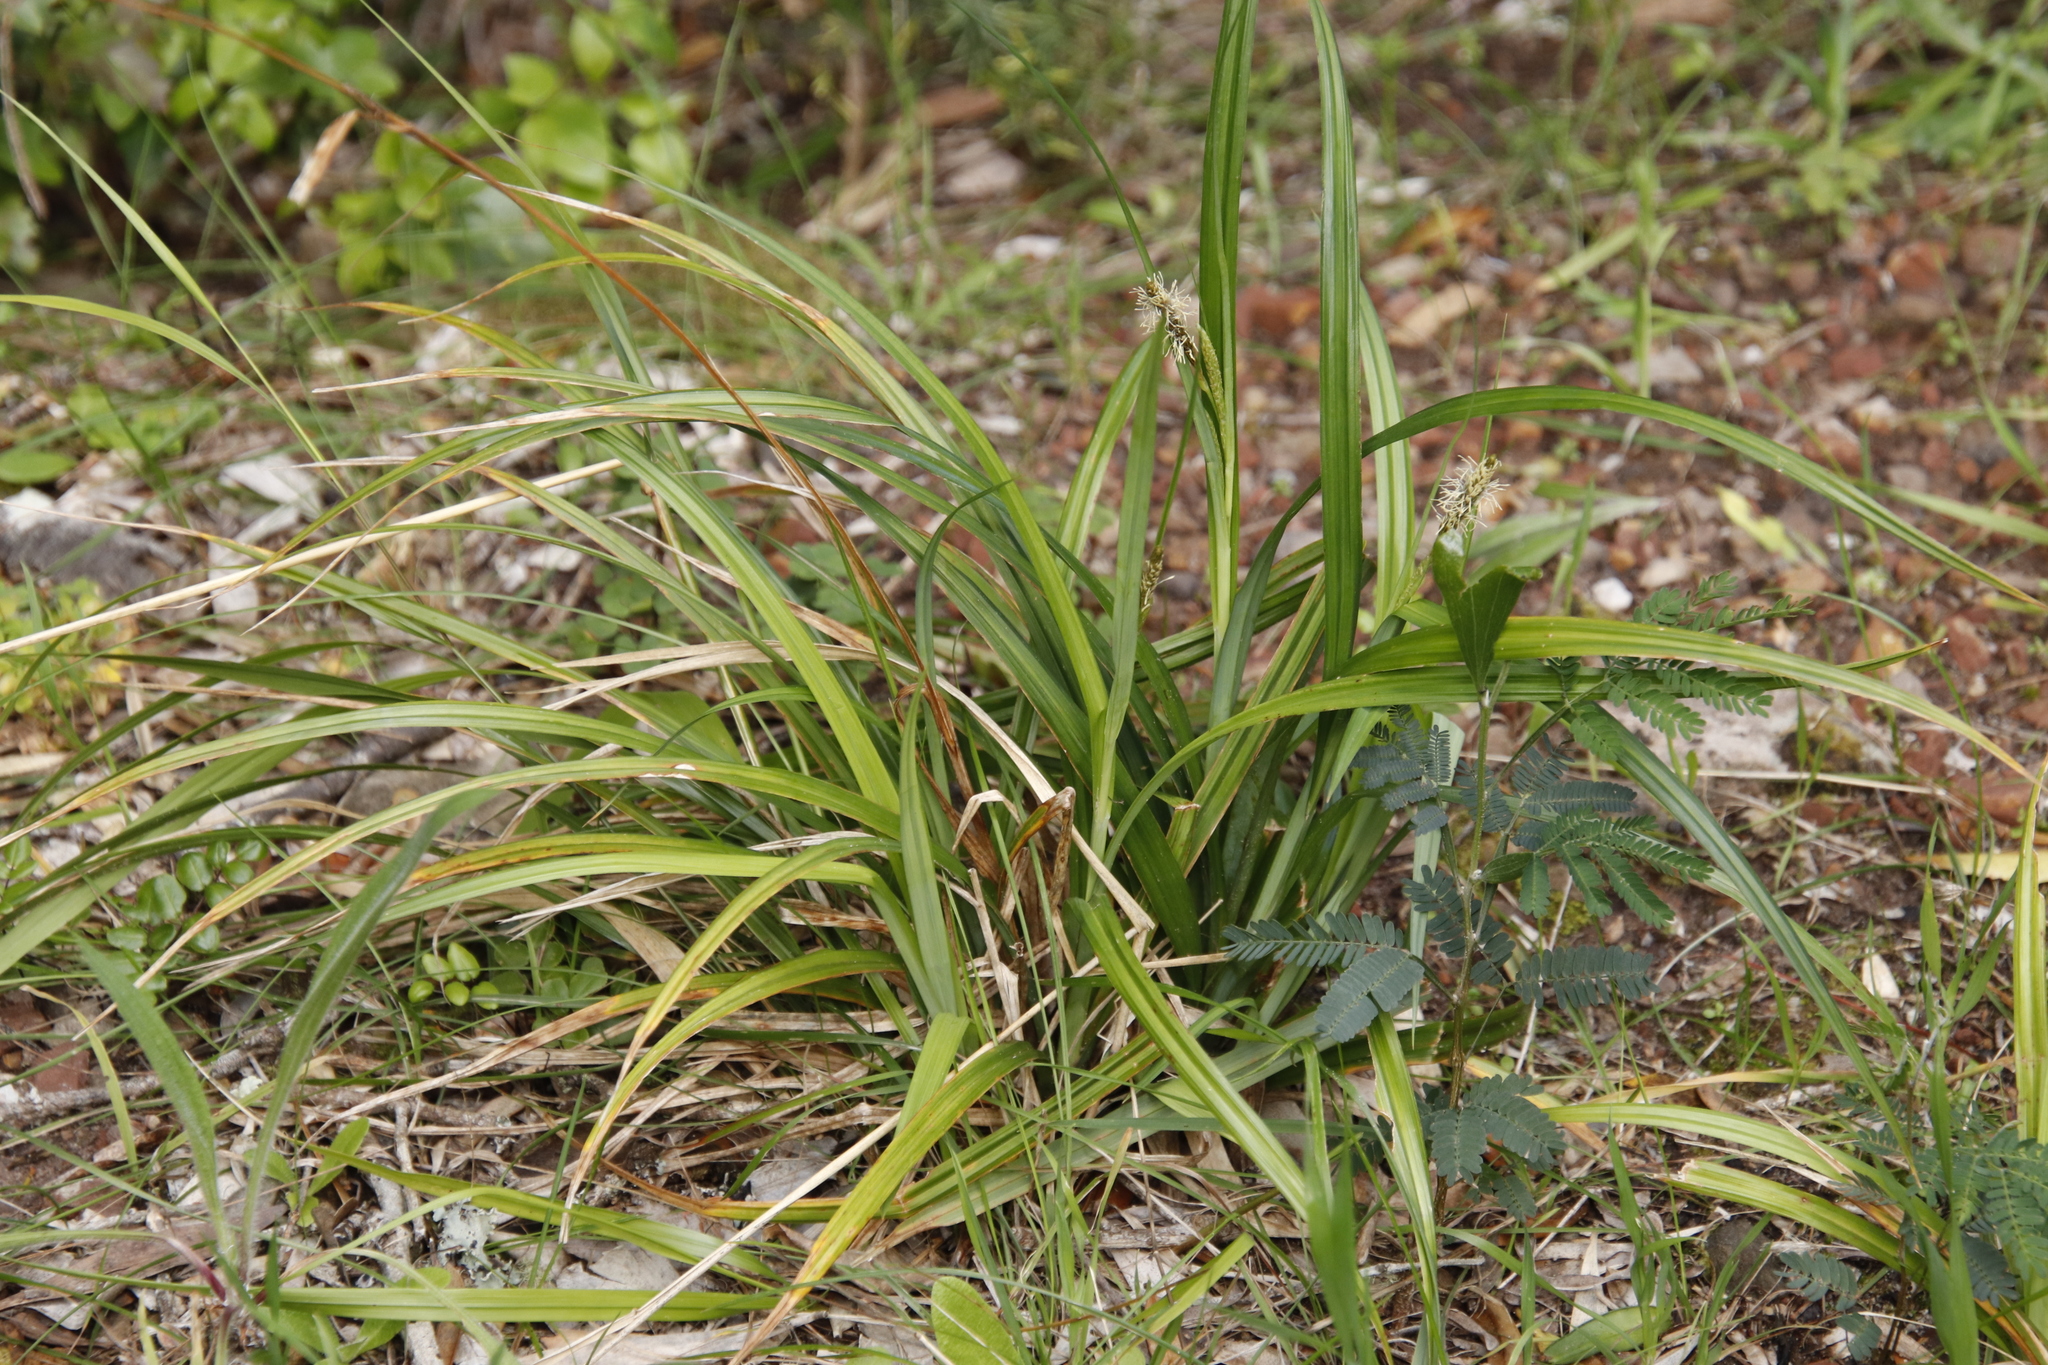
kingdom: Plantae
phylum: Tracheophyta
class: Liliopsida
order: Poales
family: Cyperaceae
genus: Carex
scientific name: Carex aethiopica
